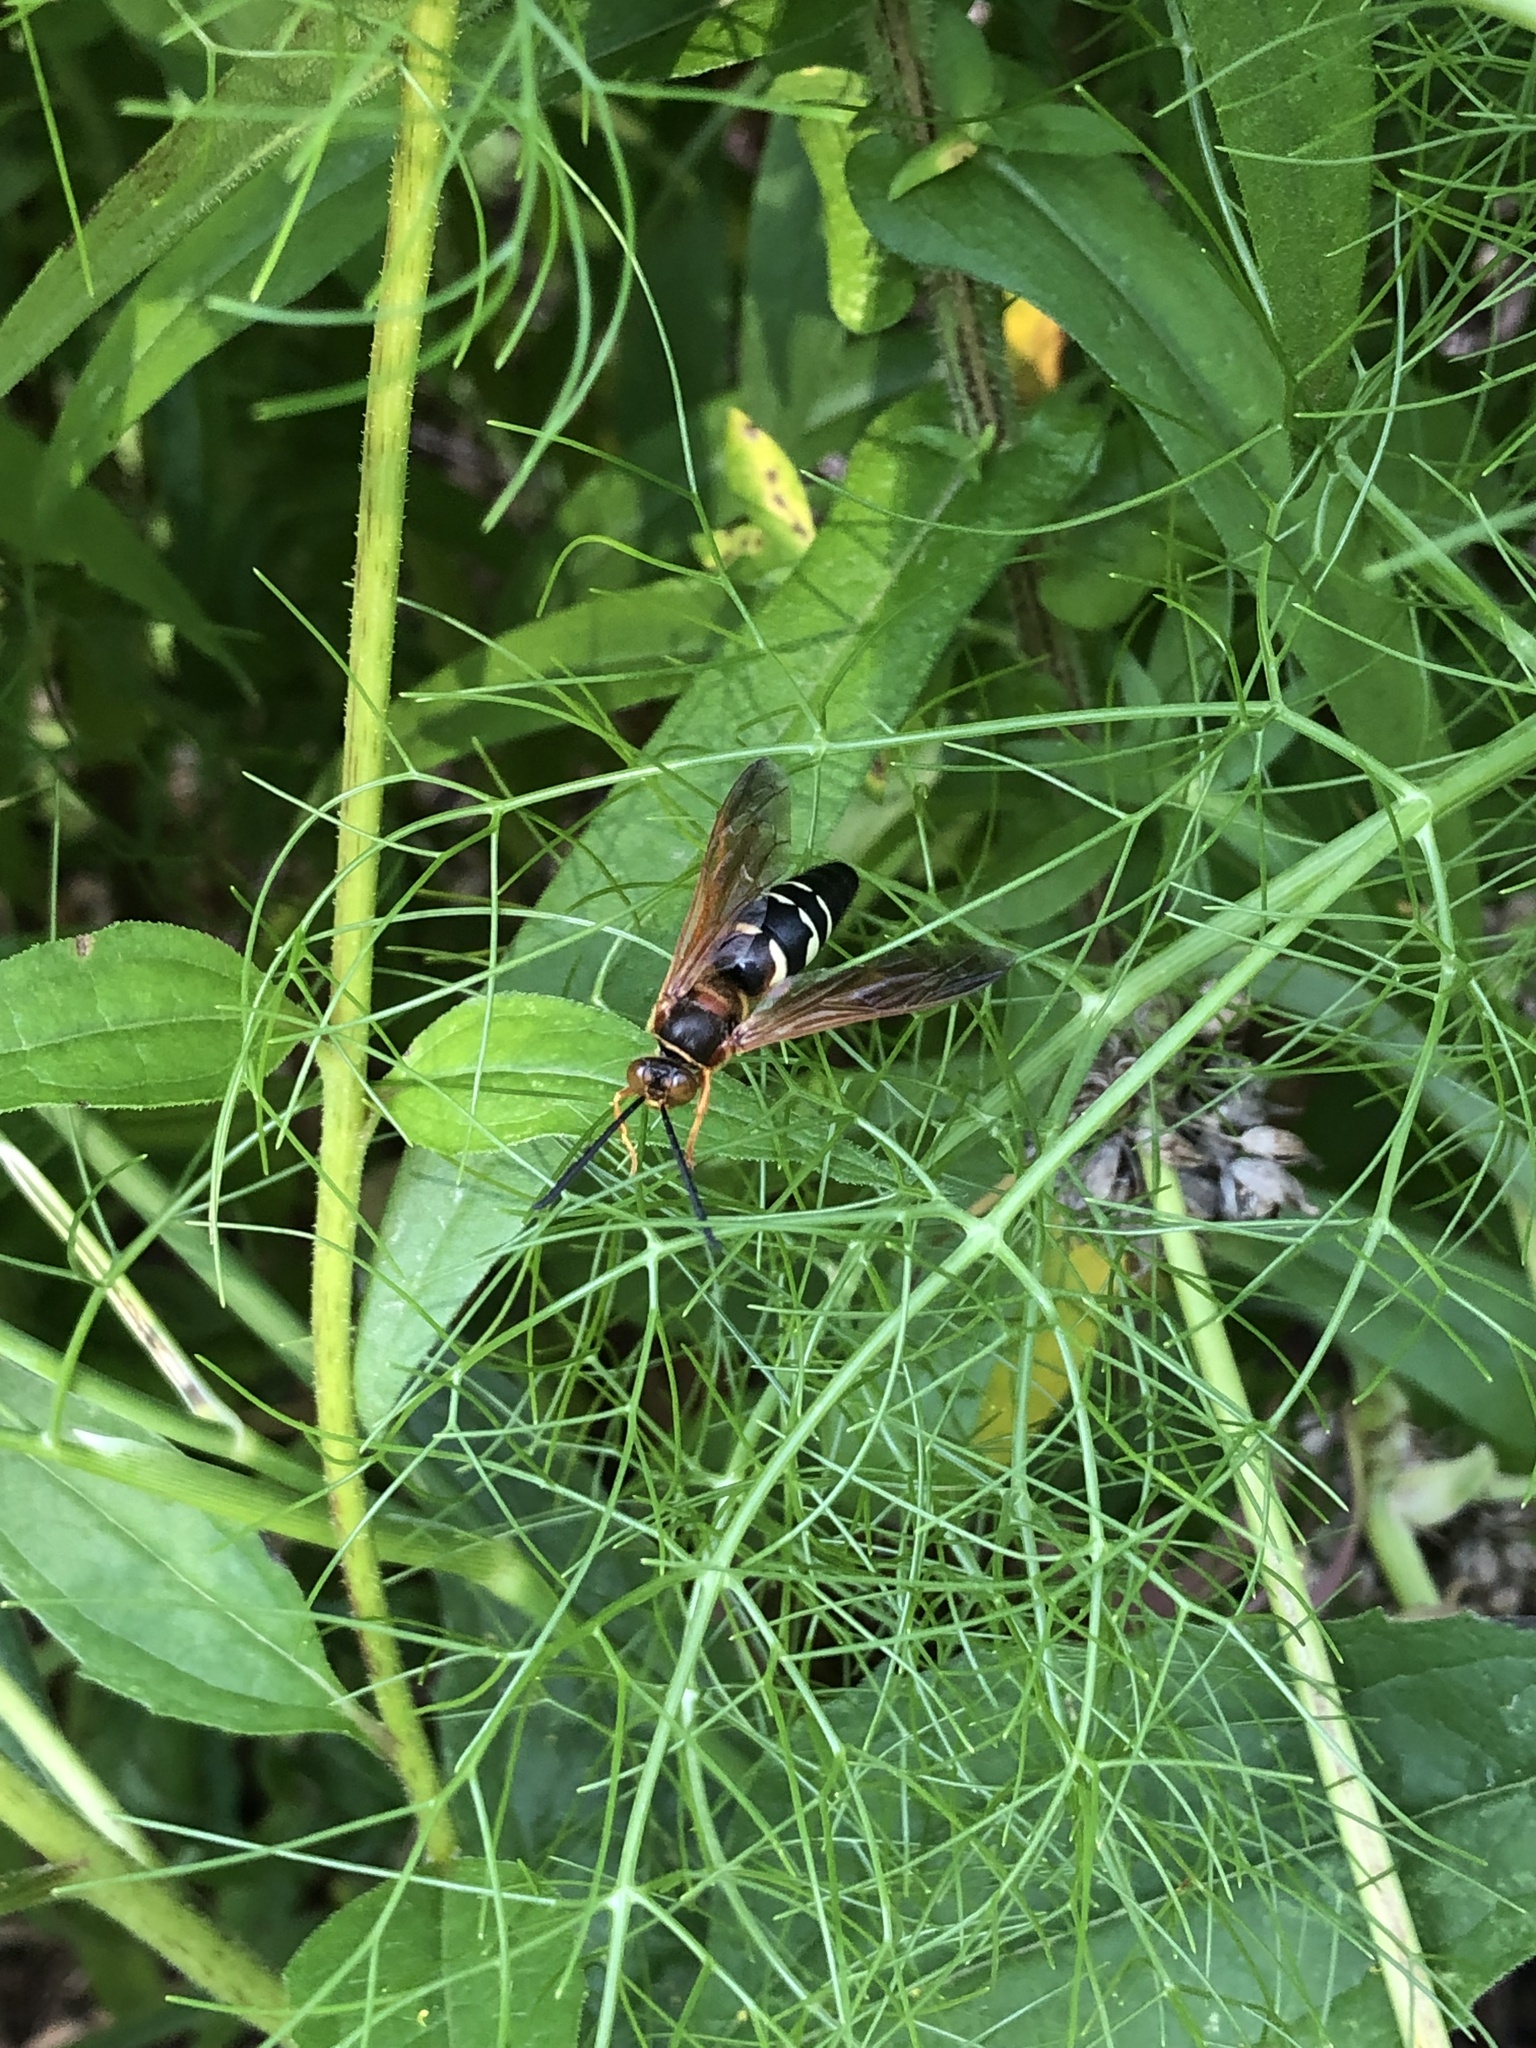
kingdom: Animalia
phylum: Arthropoda
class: Insecta
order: Hymenoptera
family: Crabronidae
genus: Sphecius
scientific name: Sphecius speciosus
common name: Cicada killer
